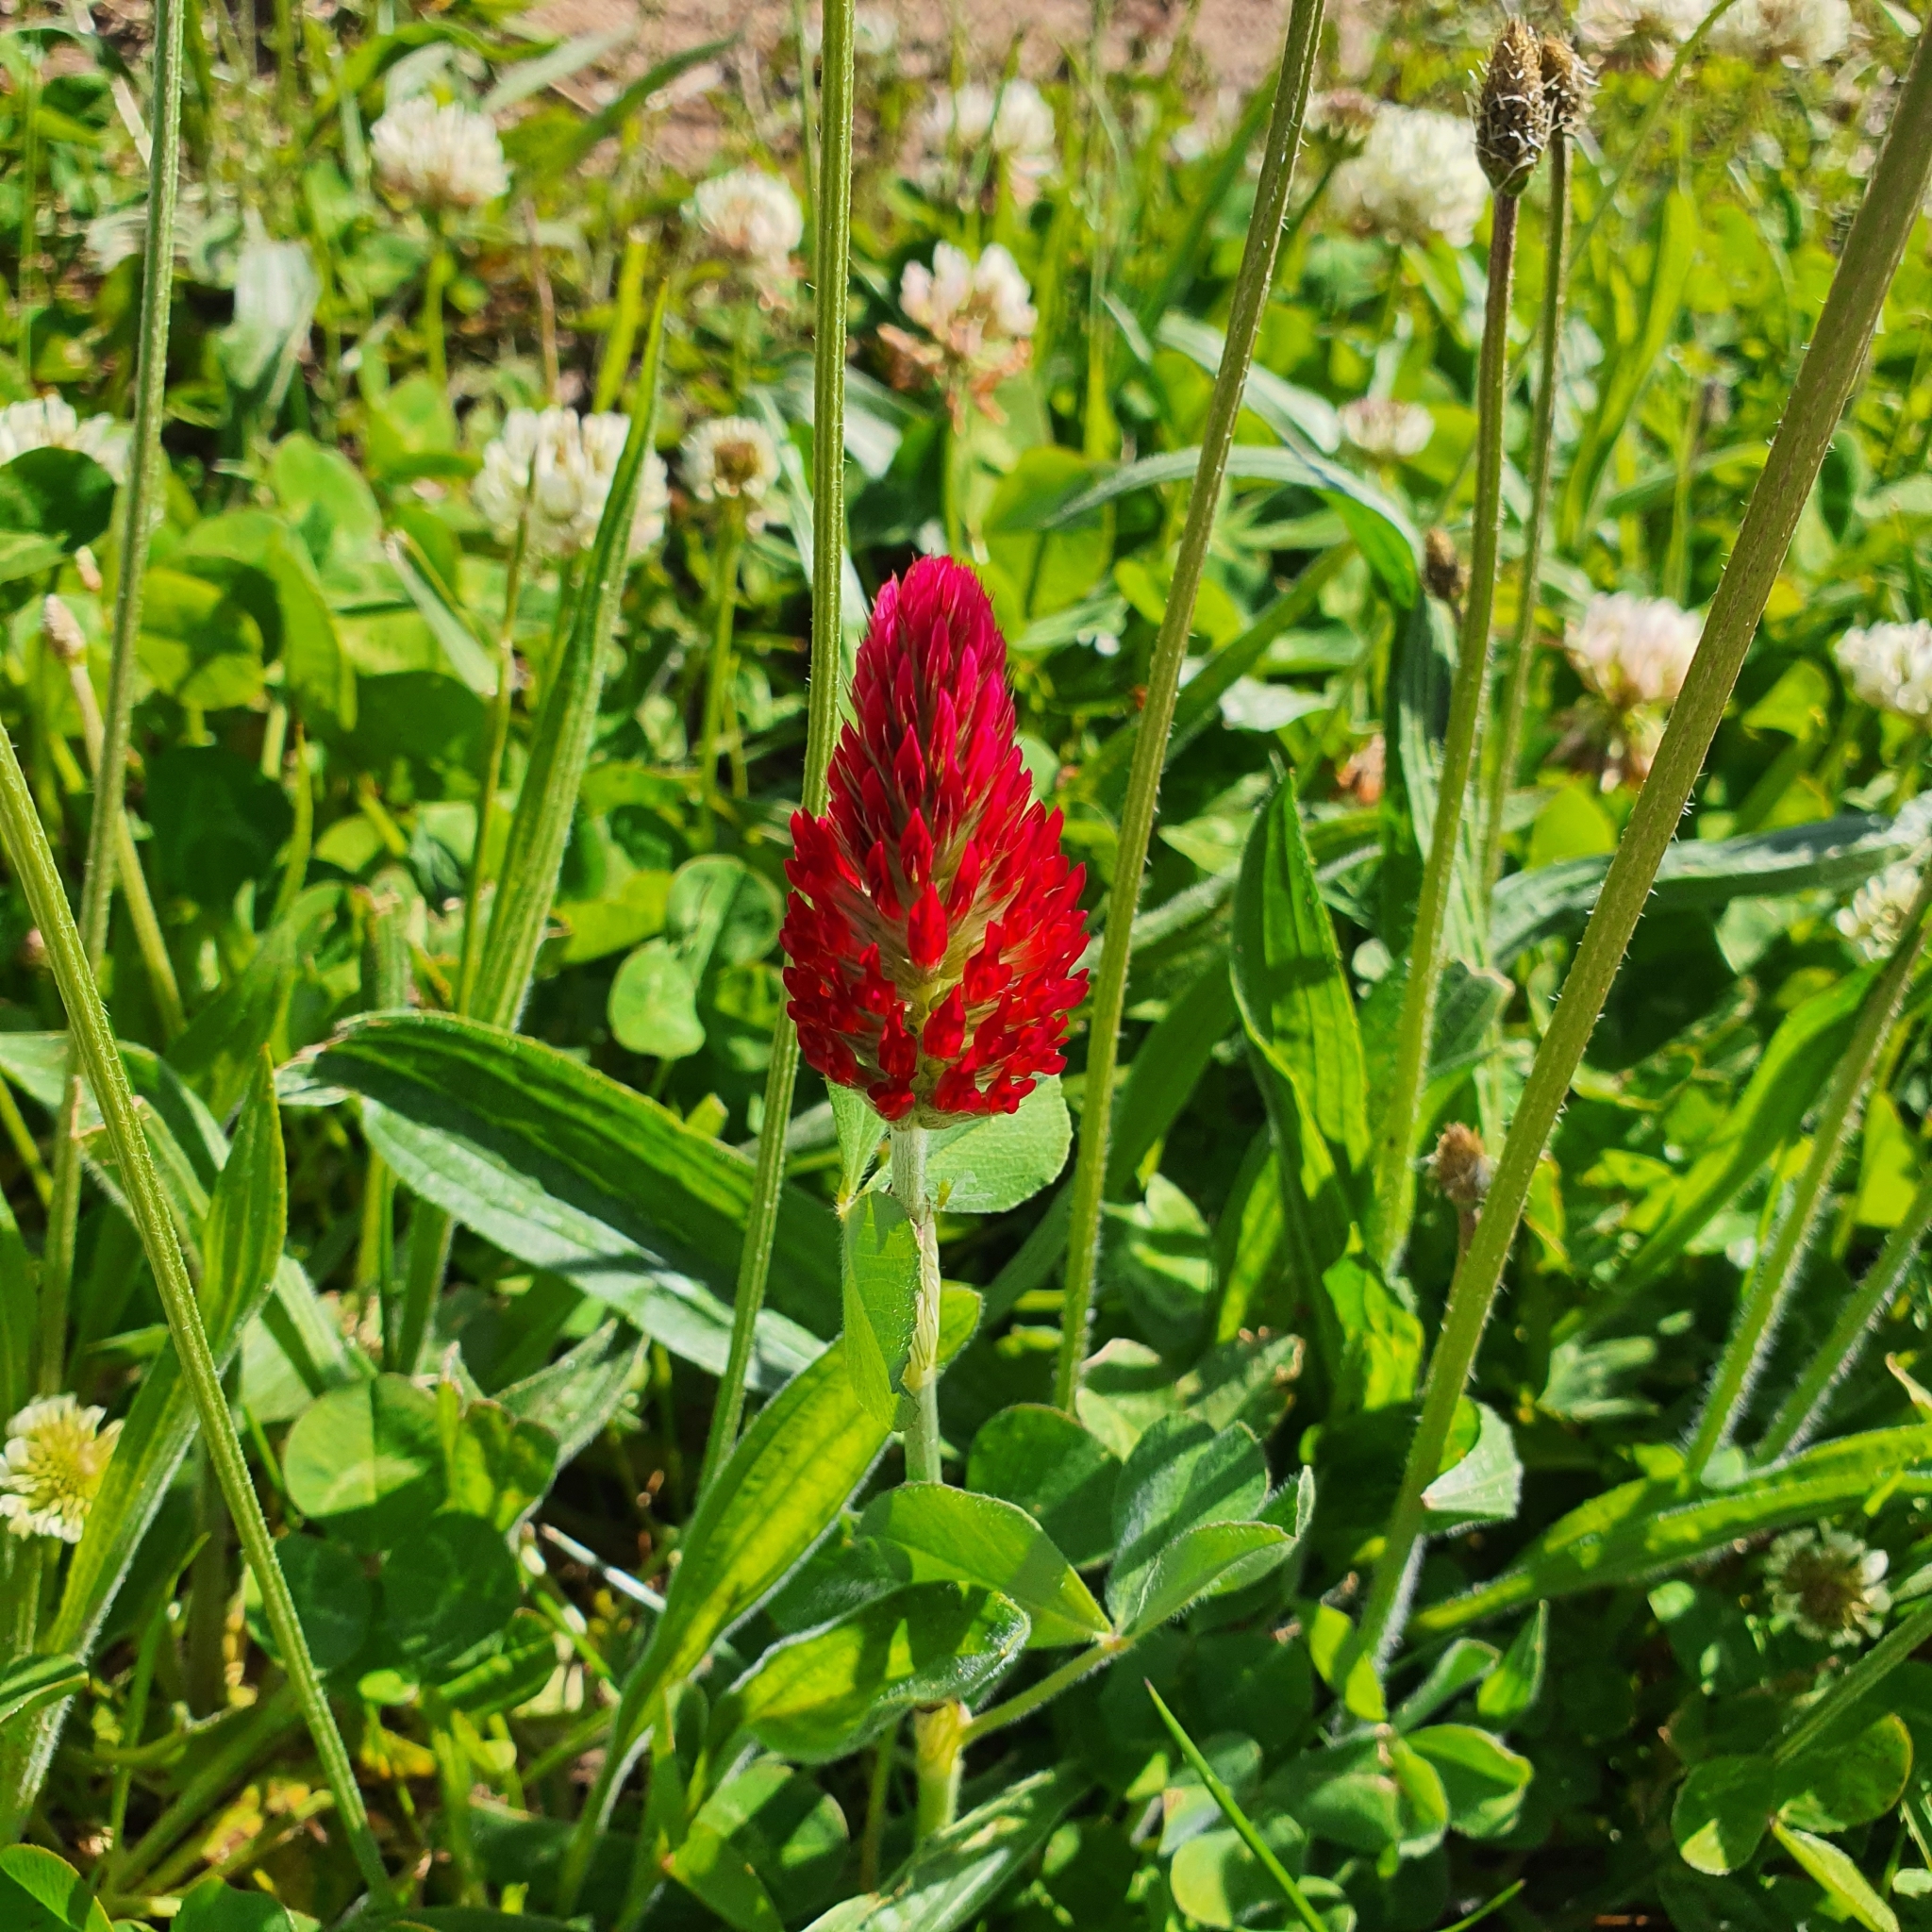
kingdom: Plantae
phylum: Tracheophyta
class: Magnoliopsida
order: Fabales
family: Fabaceae
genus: Trifolium
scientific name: Trifolium incarnatum
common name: Crimson clover
